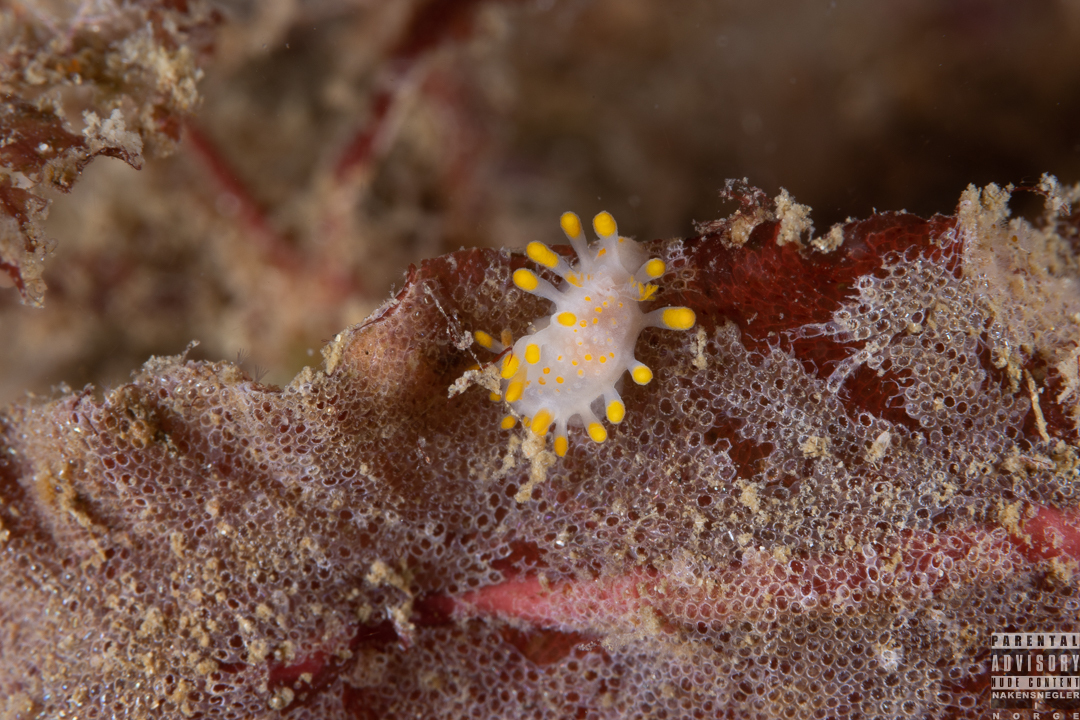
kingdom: Animalia
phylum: Mollusca
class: Gastropoda
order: Nudibranchia
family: Polyceridae
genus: Limacia
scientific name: Limacia clavigera
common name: Orange-clubbed sea slug
